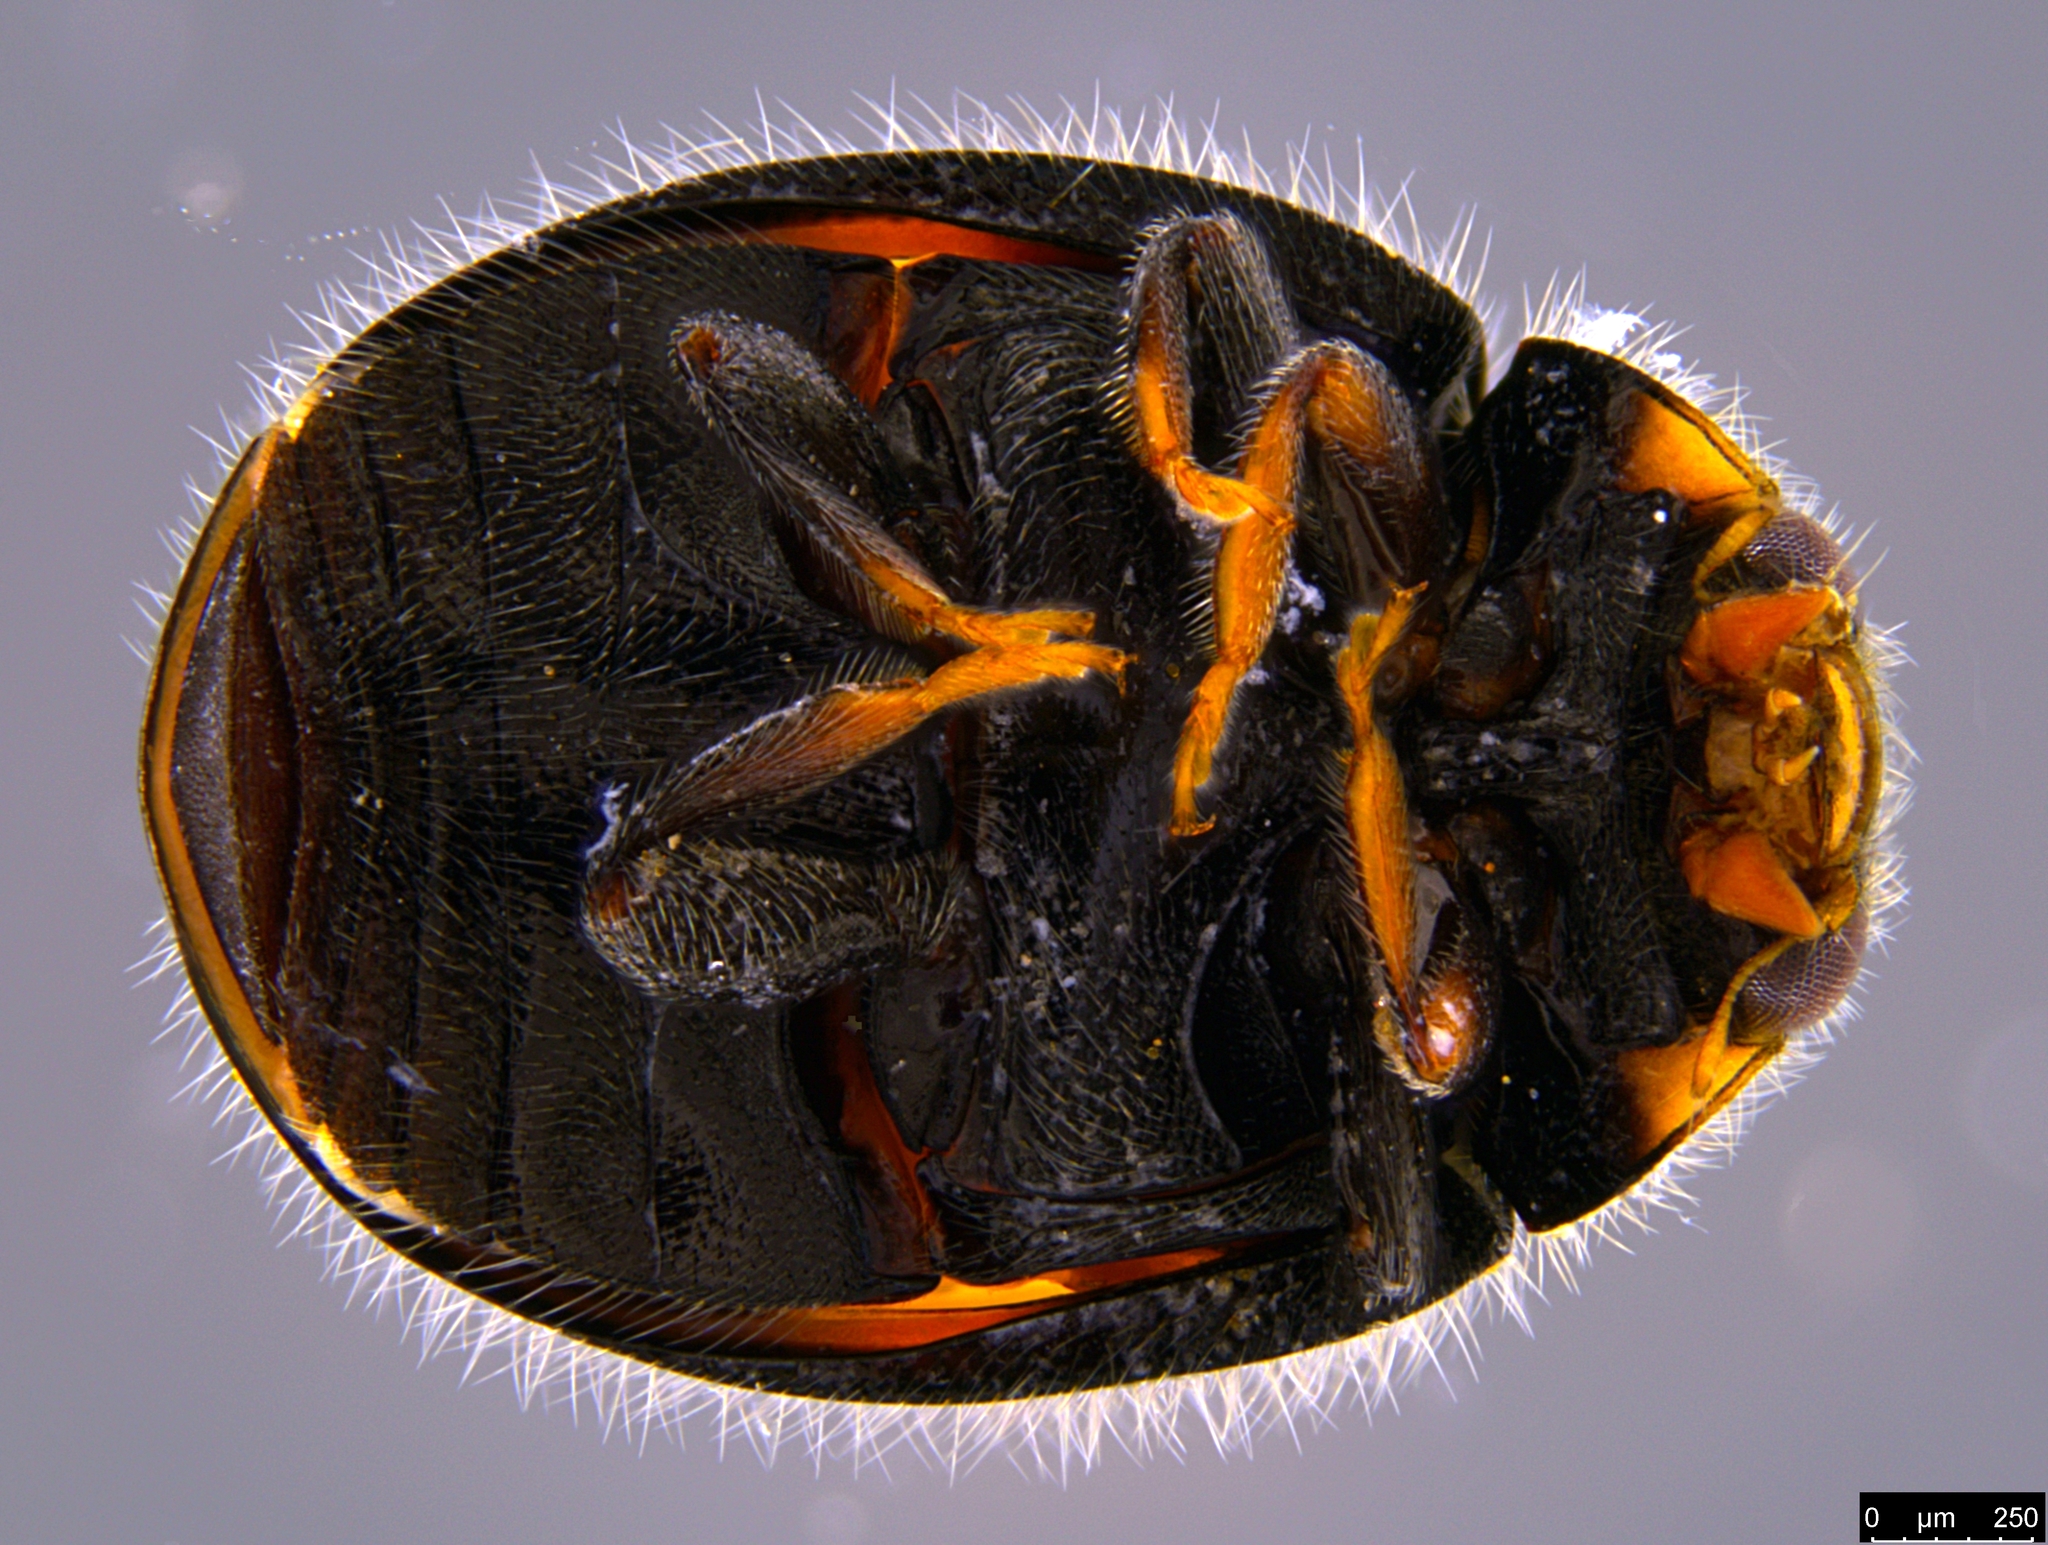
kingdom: Animalia
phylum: Arthropoda
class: Insecta
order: Coleoptera
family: Coccinellidae
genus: Scymnus
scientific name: Scymnus notescens
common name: Minute two-spotted ladybird beetle
